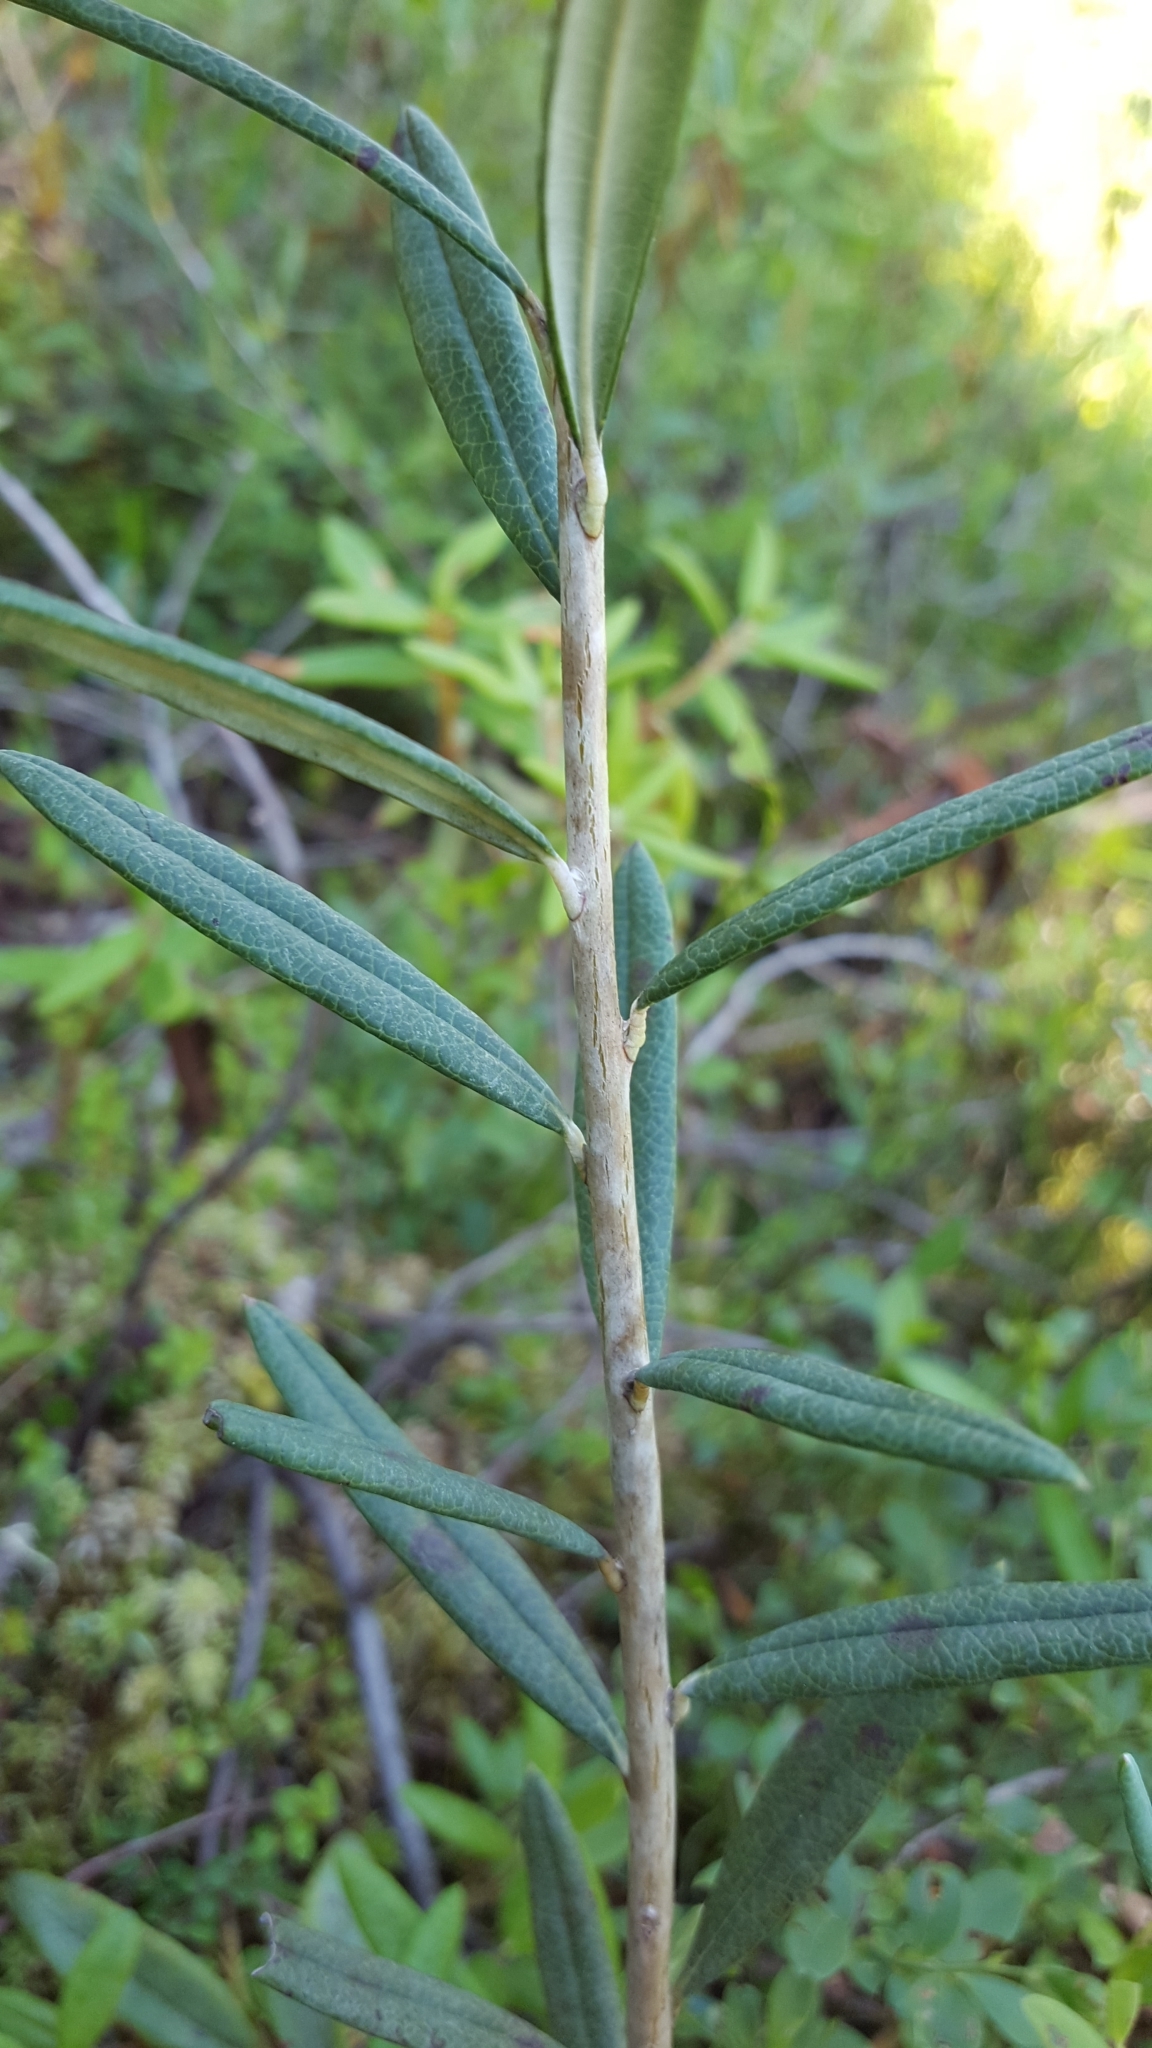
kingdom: Plantae
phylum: Tracheophyta
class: Magnoliopsida
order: Ericales
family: Ericaceae
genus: Andromeda
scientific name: Andromeda polifolia
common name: Bog-rosemary
